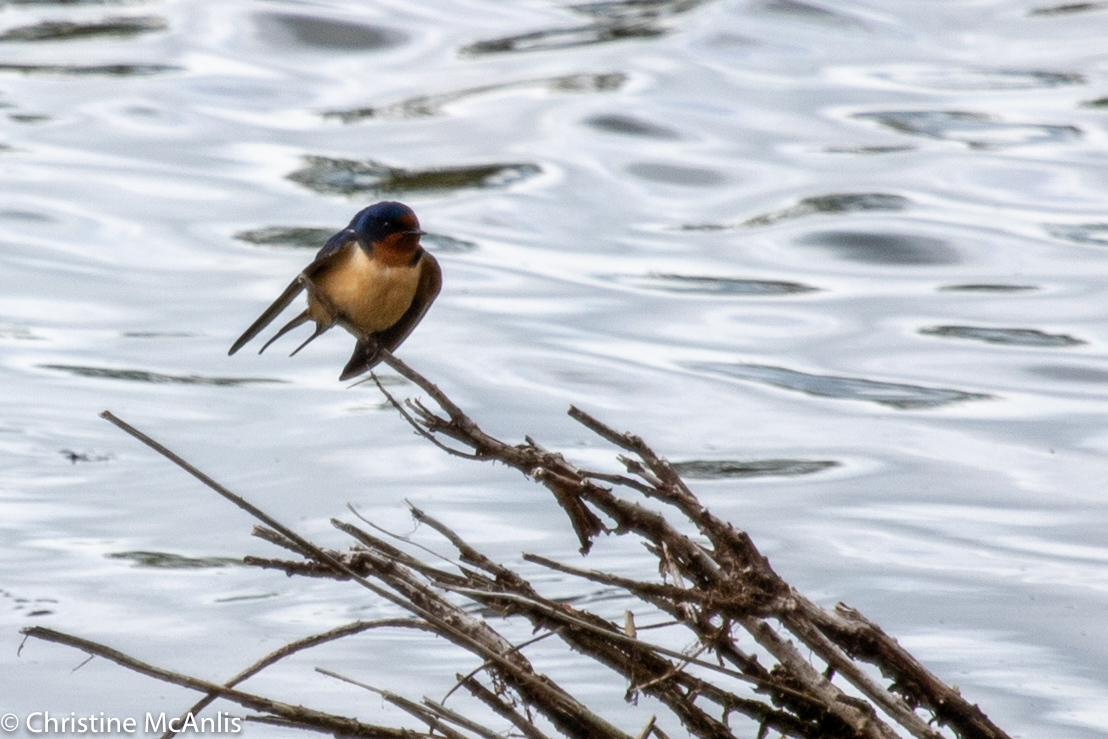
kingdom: Animalia
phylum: Chordata
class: Aves
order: Passeriformes
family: Hirundinidae
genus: Hirundo
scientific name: Hirundo rustica
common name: Barn swallow
